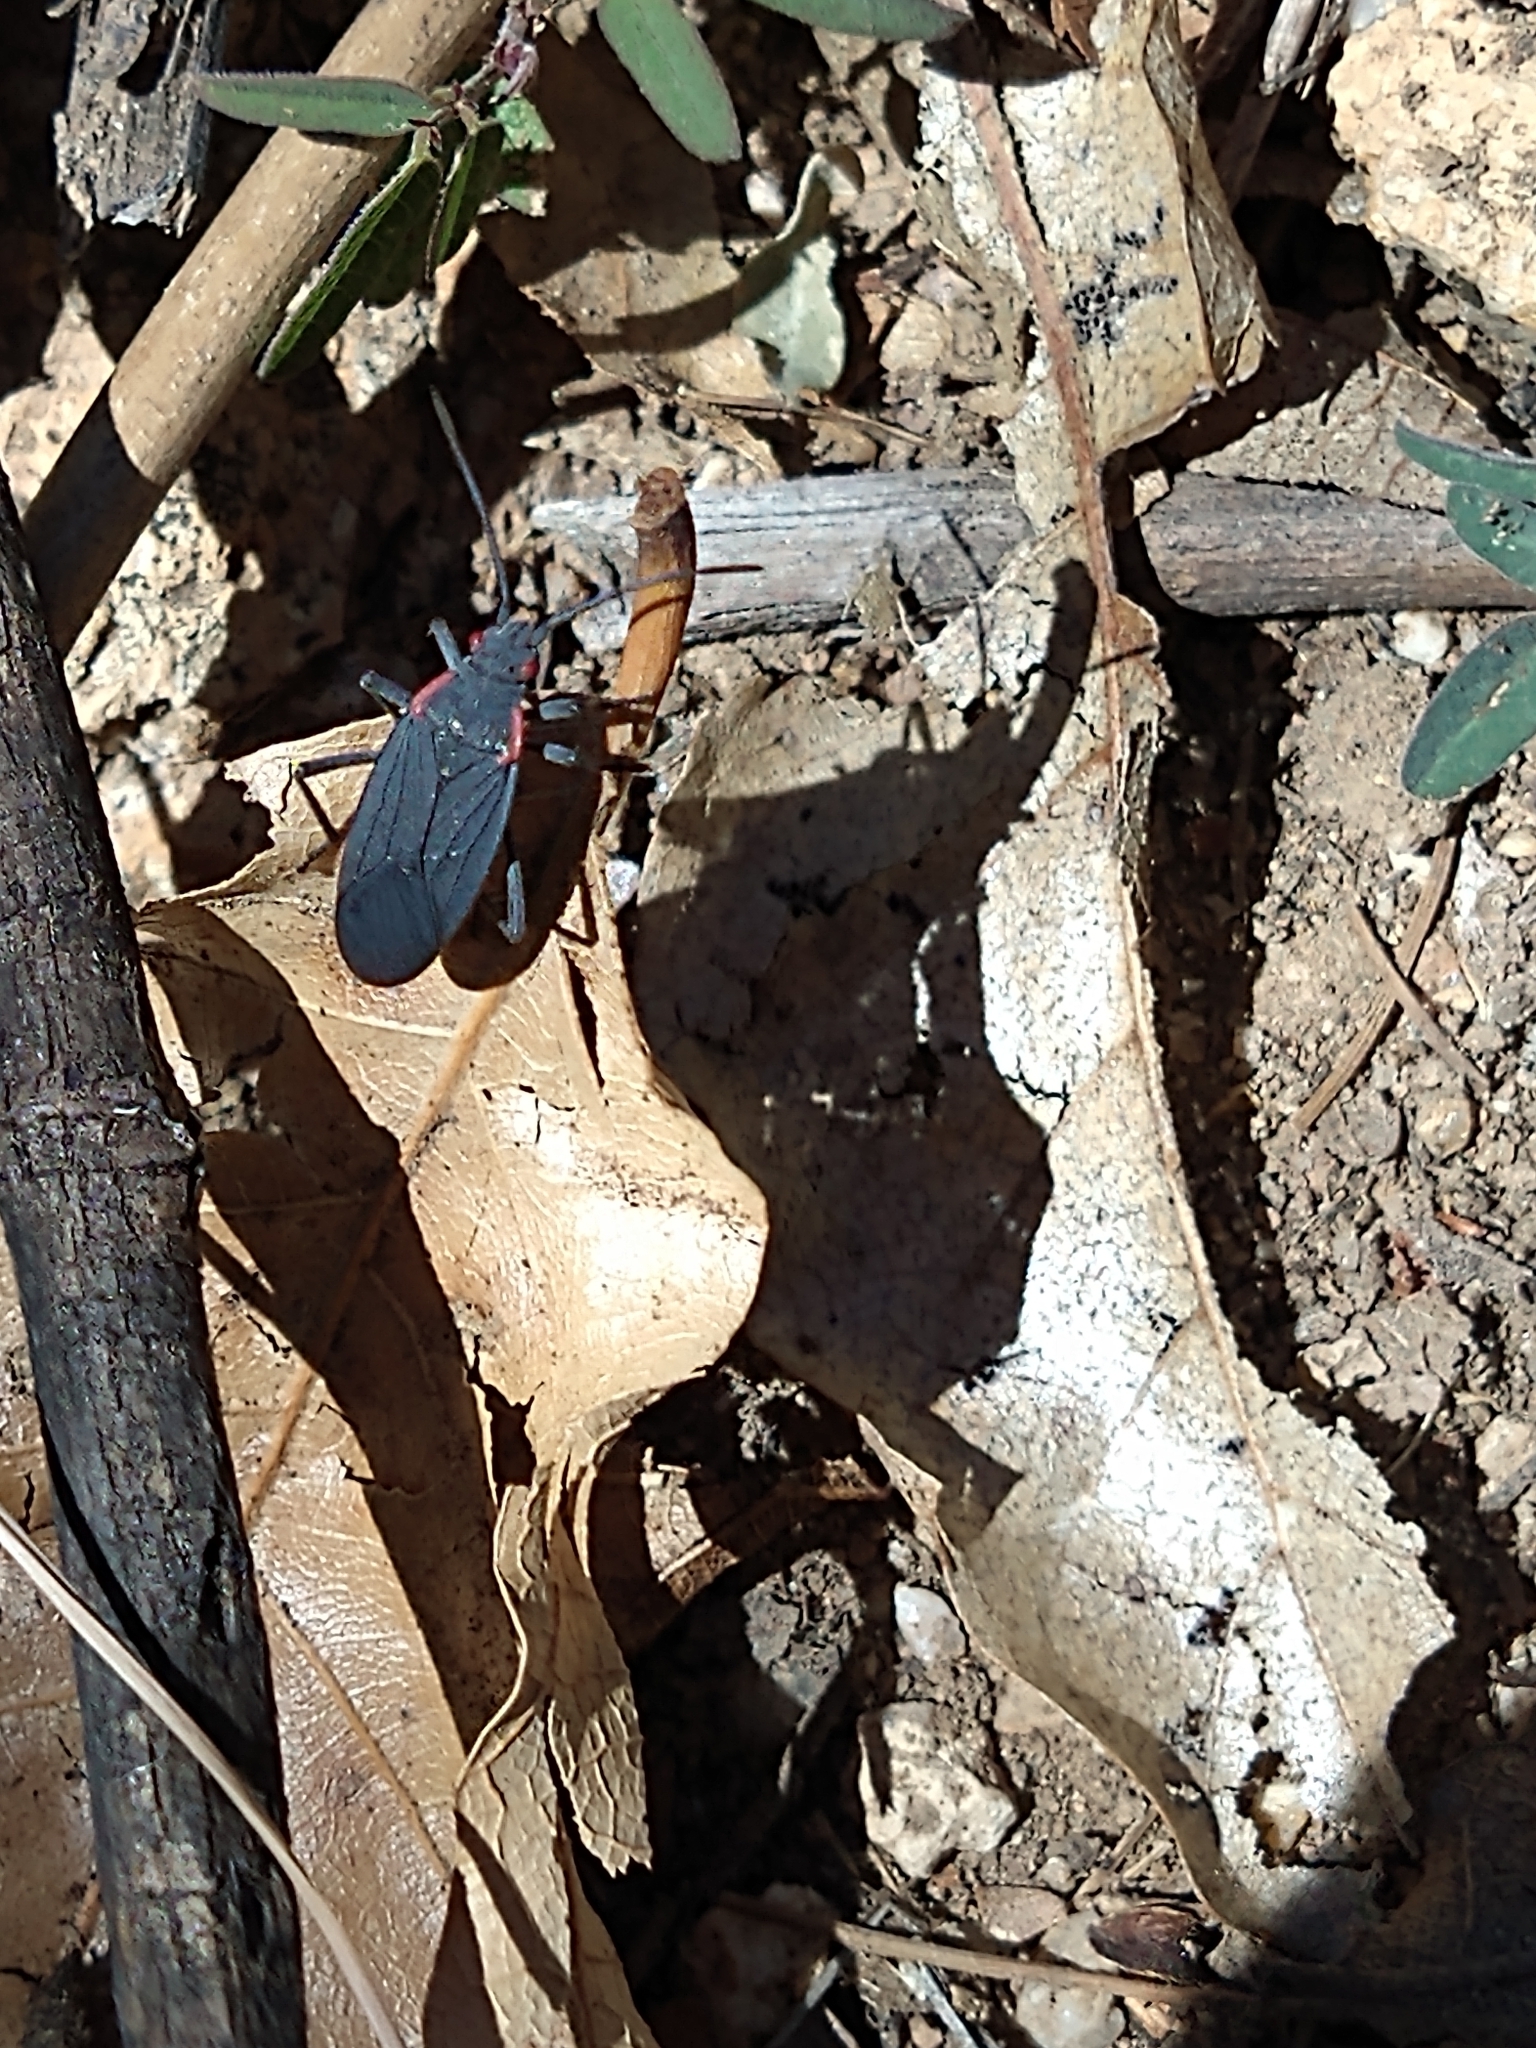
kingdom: Animalia
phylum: Arthropoda
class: Insecta
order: Hemiptera
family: Rhopalidae
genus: Jadera
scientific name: Jadera haematoloma
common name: Red-shouldered bug
